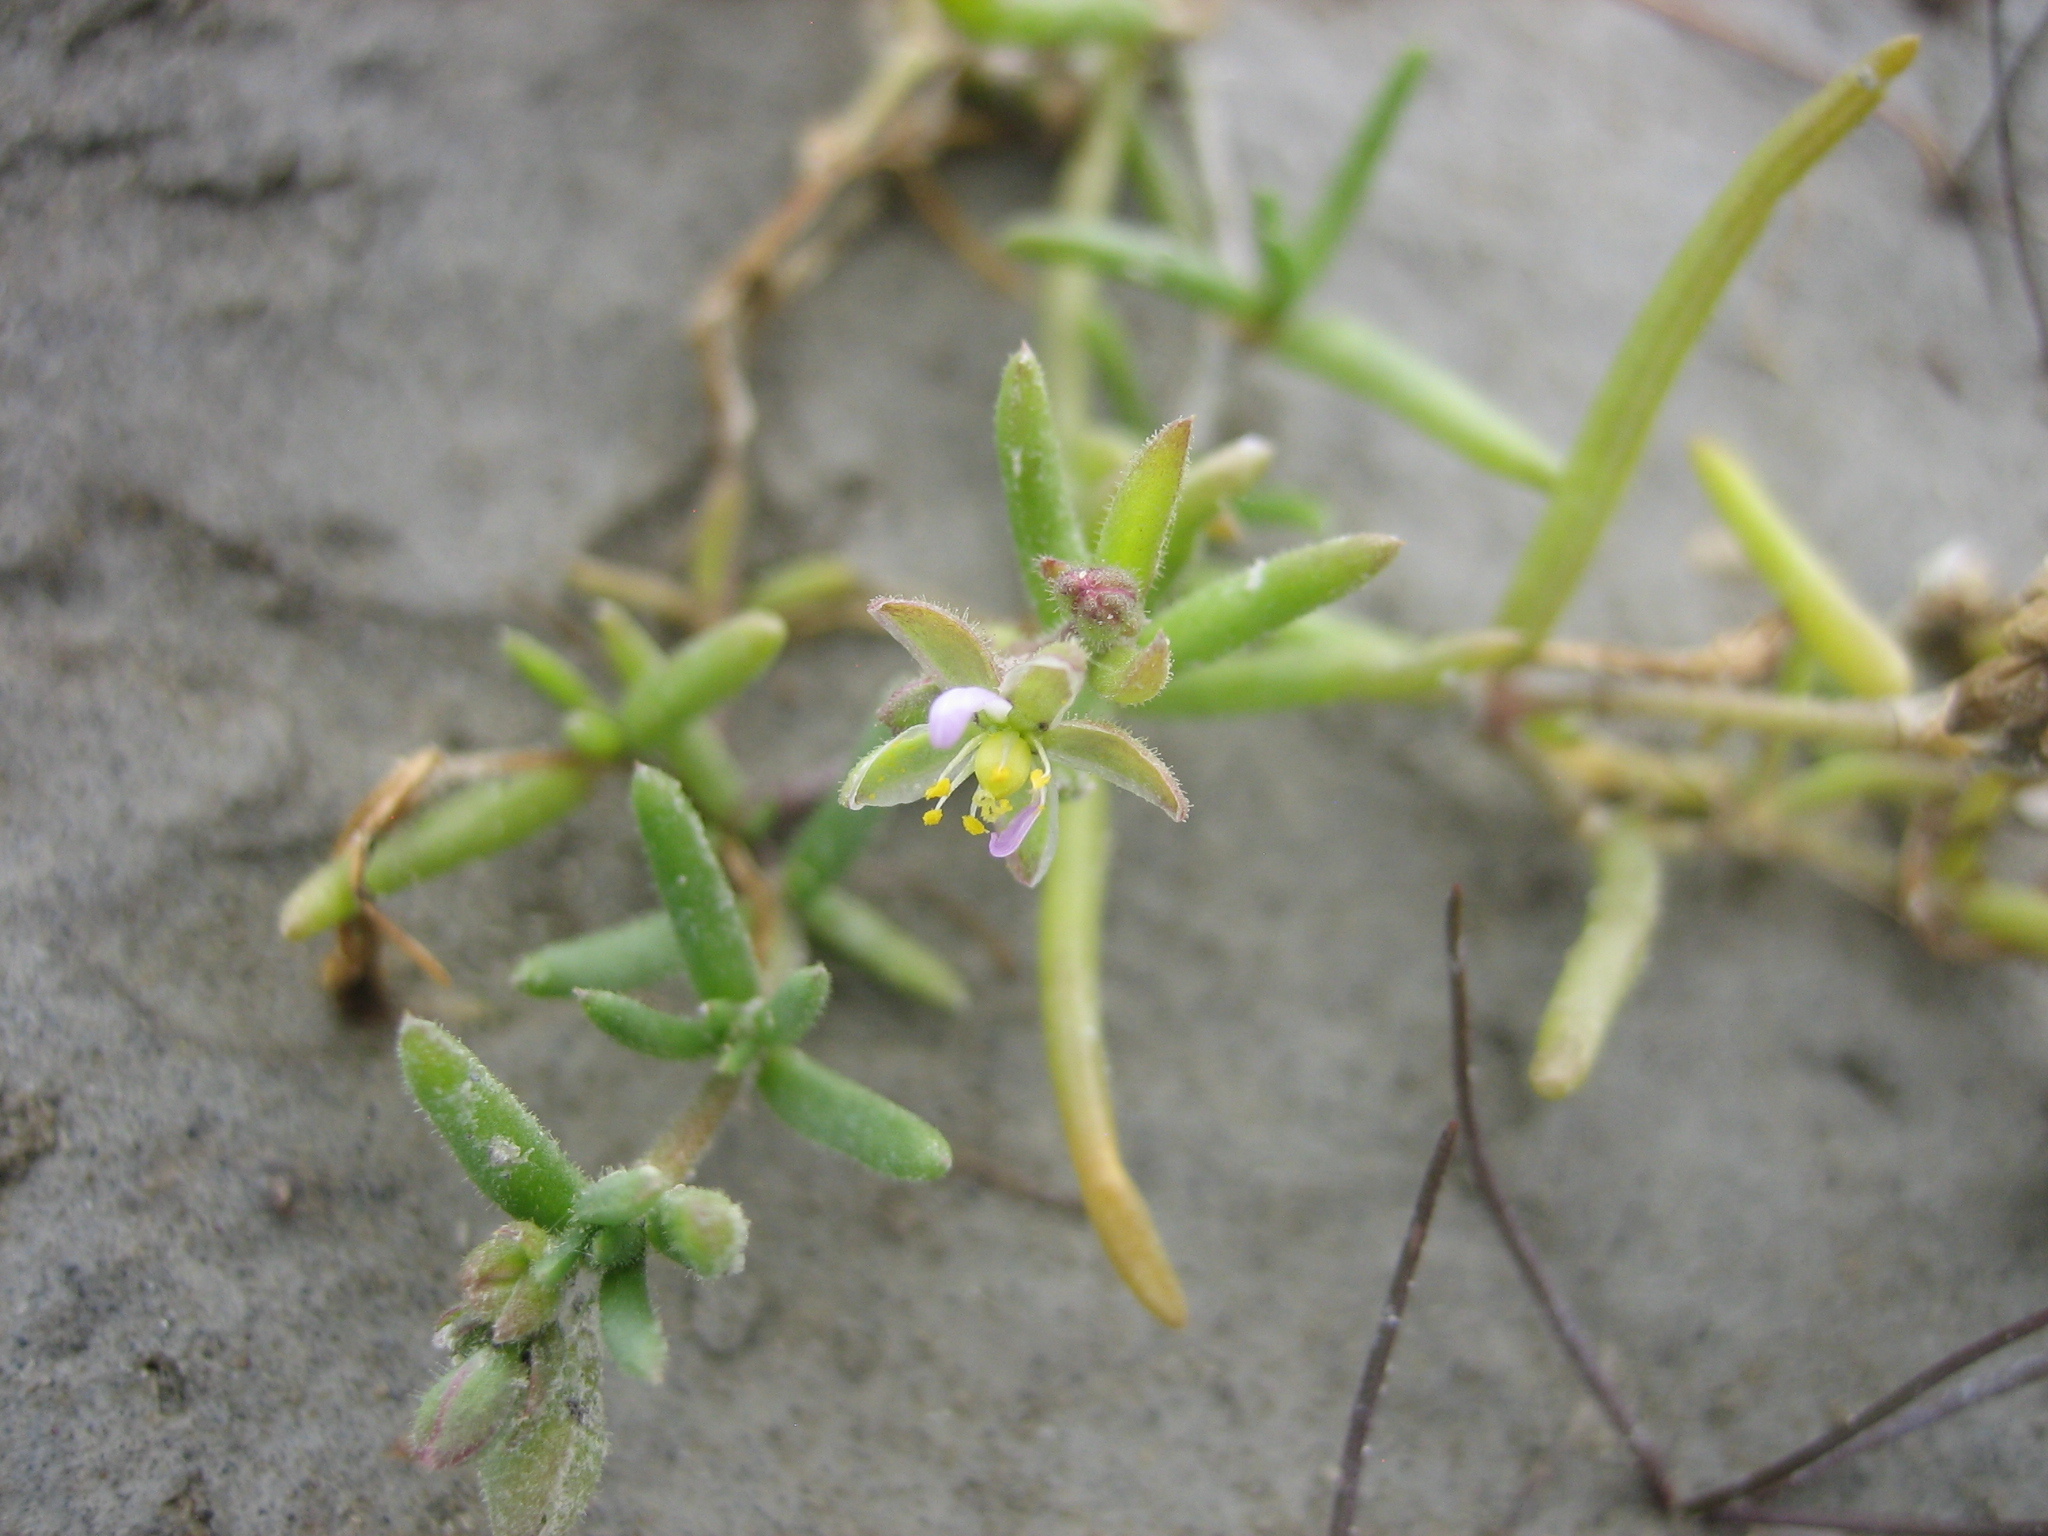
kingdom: Plantae
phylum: Tracheophyta
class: Magnoliopsida
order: Caryophyllales
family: Caryophyllaceae
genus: Spergularia
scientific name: Spergularia media
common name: Greater sea-spurrey
